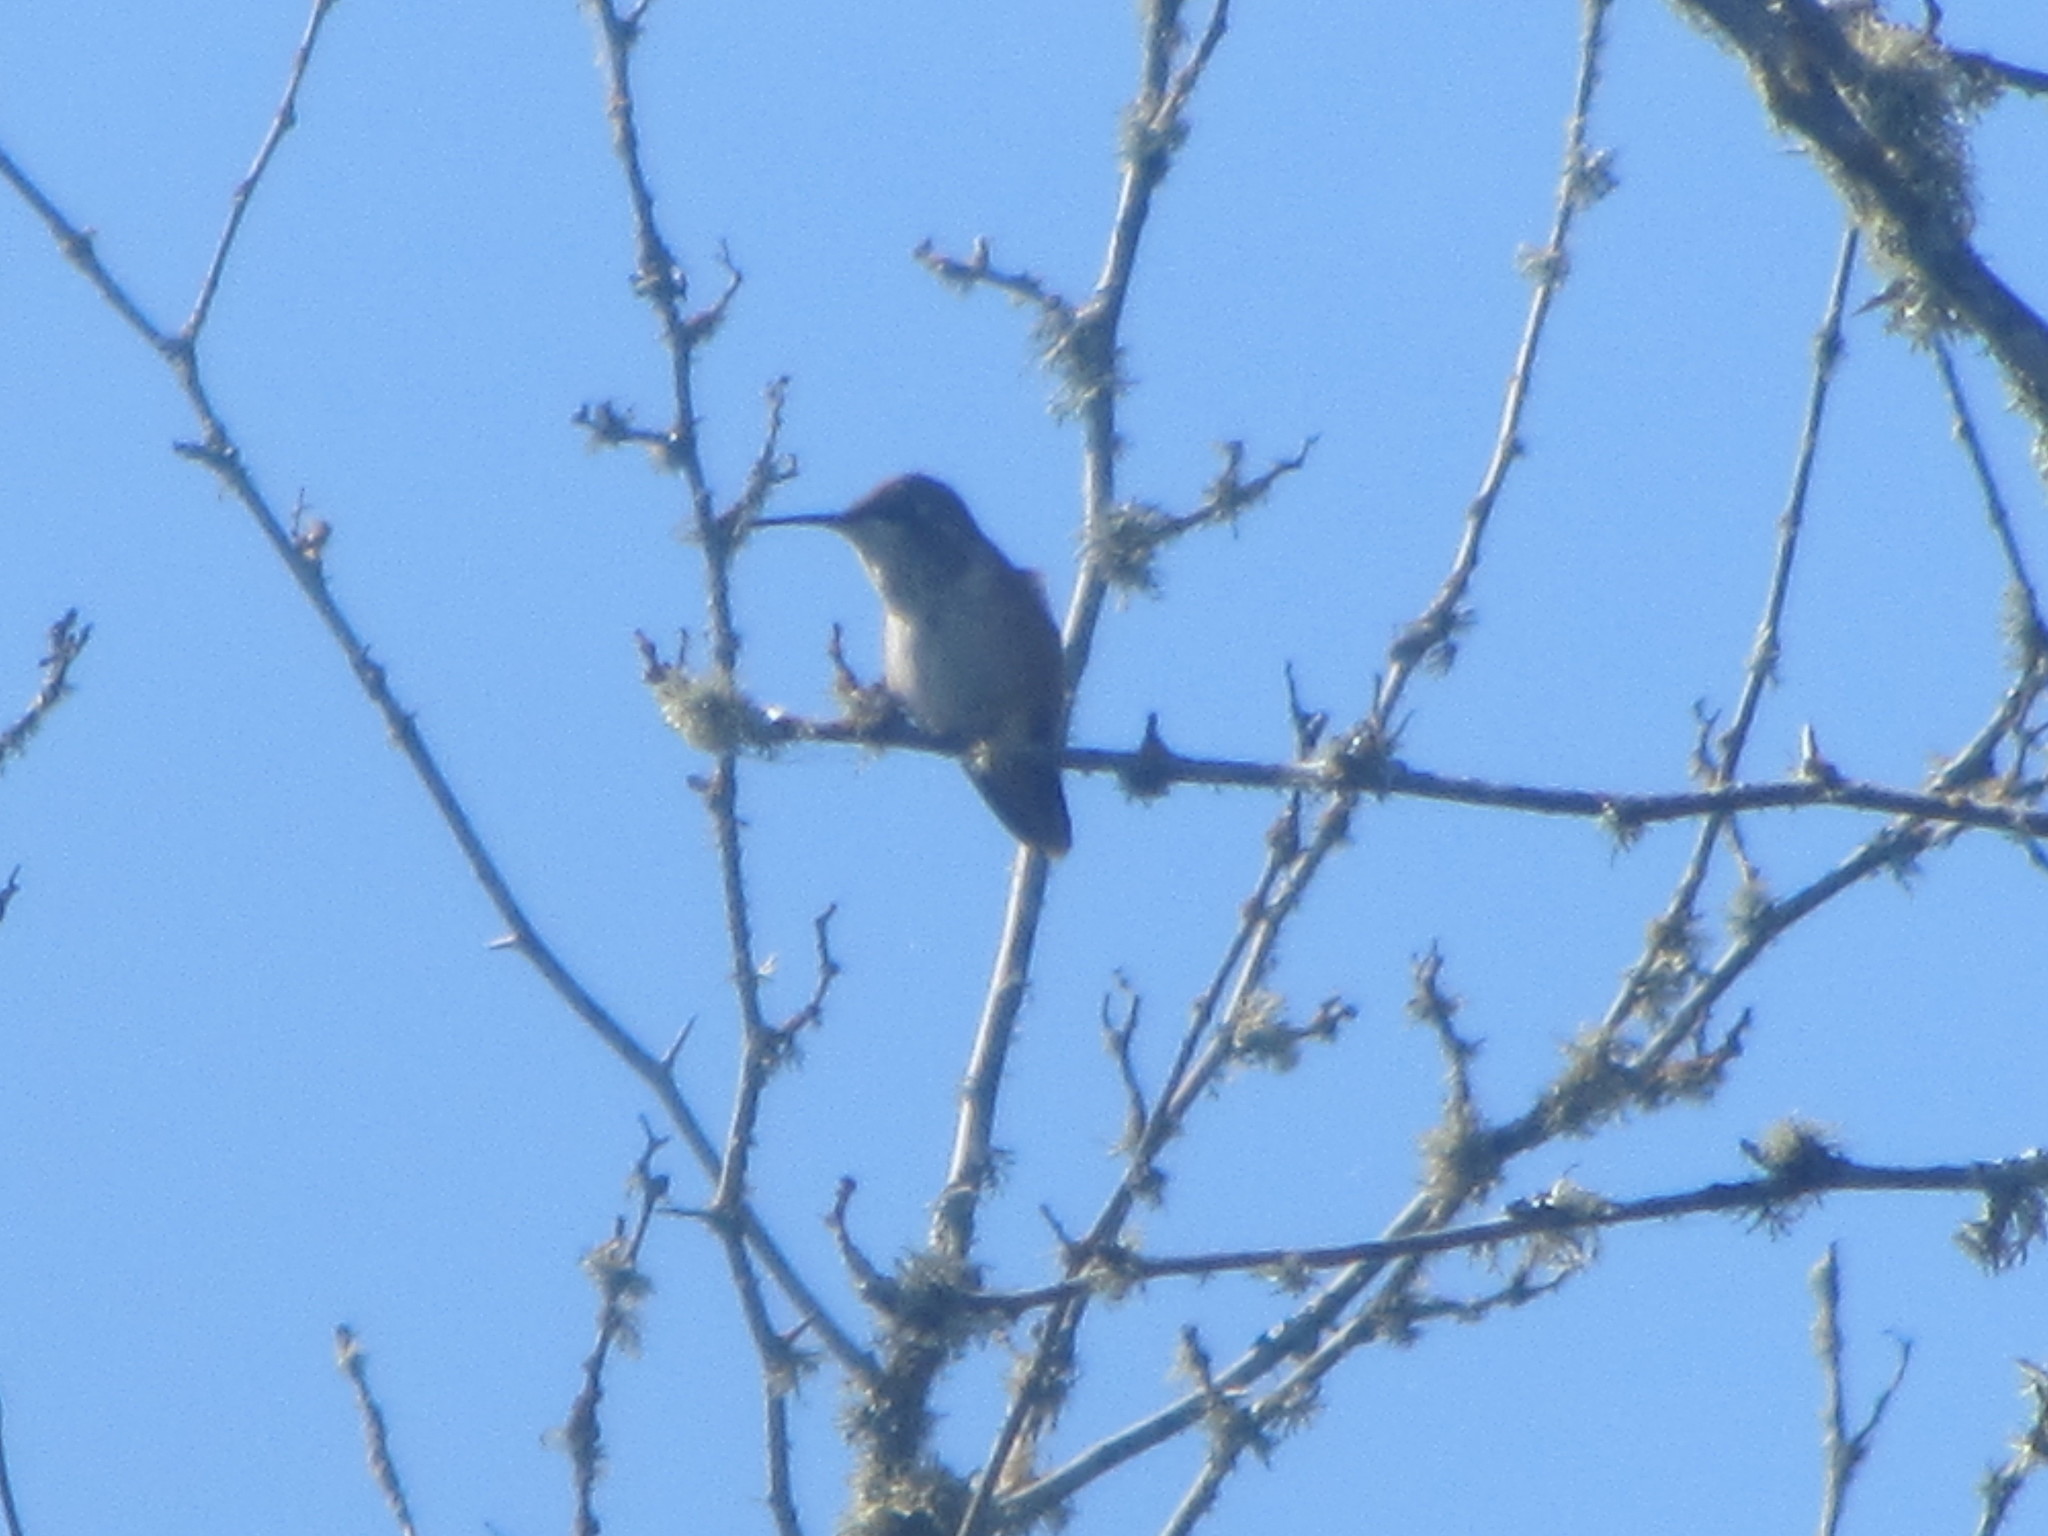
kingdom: Animalia
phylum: Chordata
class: Aves
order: Apodiformes
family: Trochilidae
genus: Selasphorus
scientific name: Selasphorus rufus
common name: Rufous hummingbird
